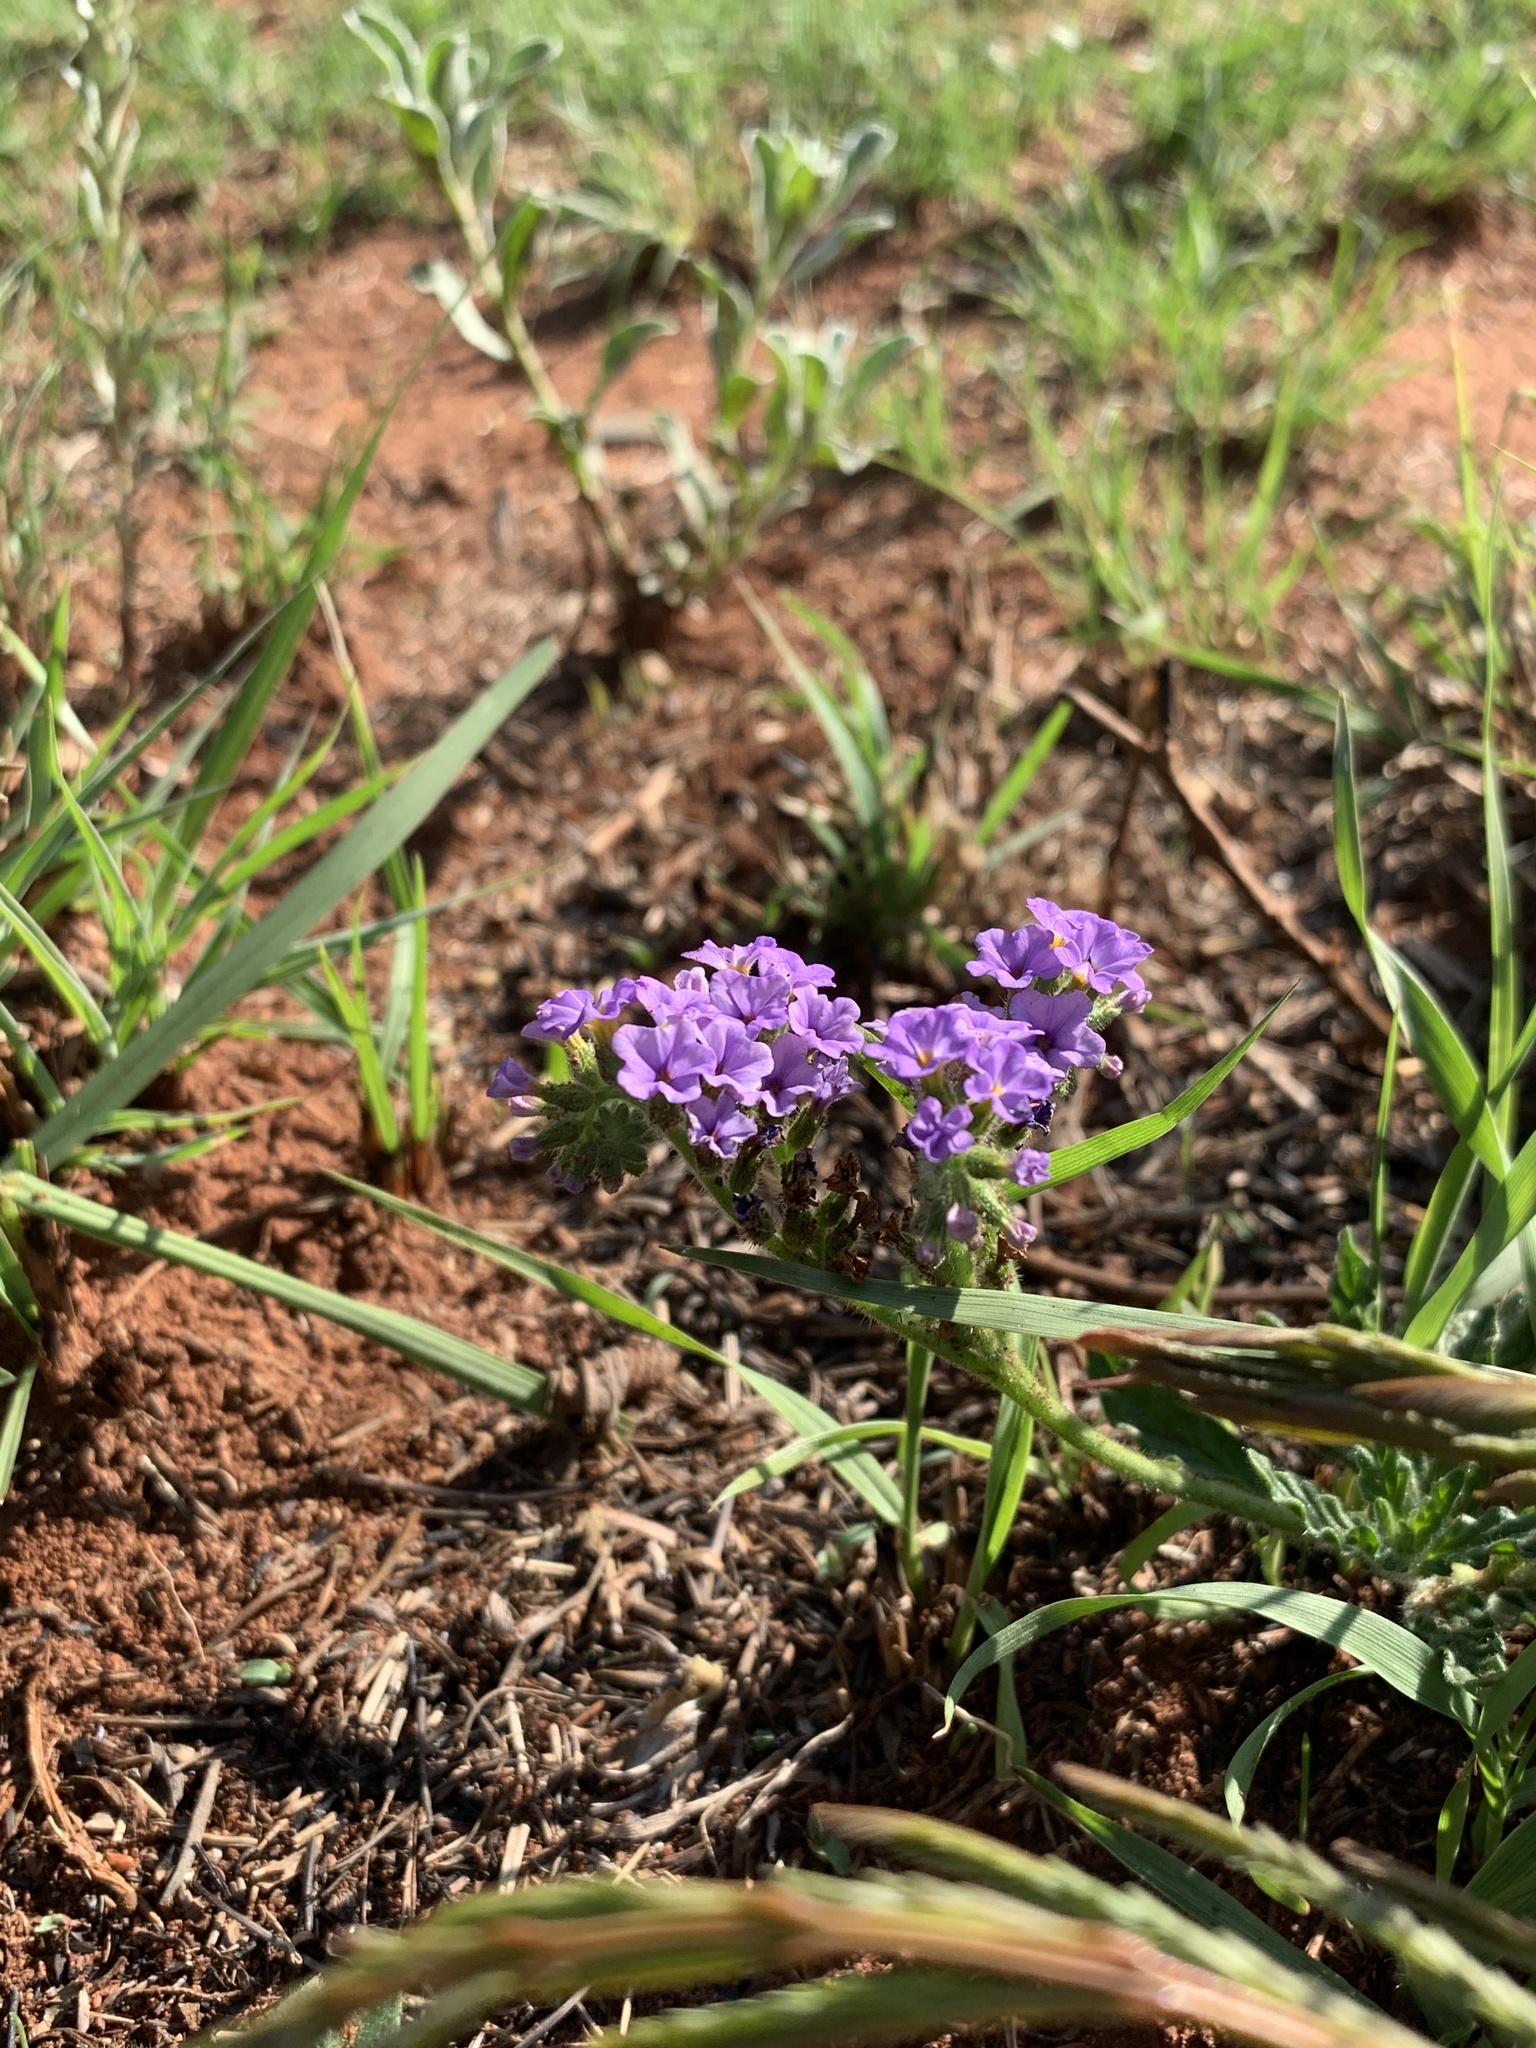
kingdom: Plantae
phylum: Tracheophyta
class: Magnoliopsida
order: Boraginales
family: Heliotropiaceae
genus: Heliotropium
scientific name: Heliotropium amplexicaule
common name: Clasping heliotrope
